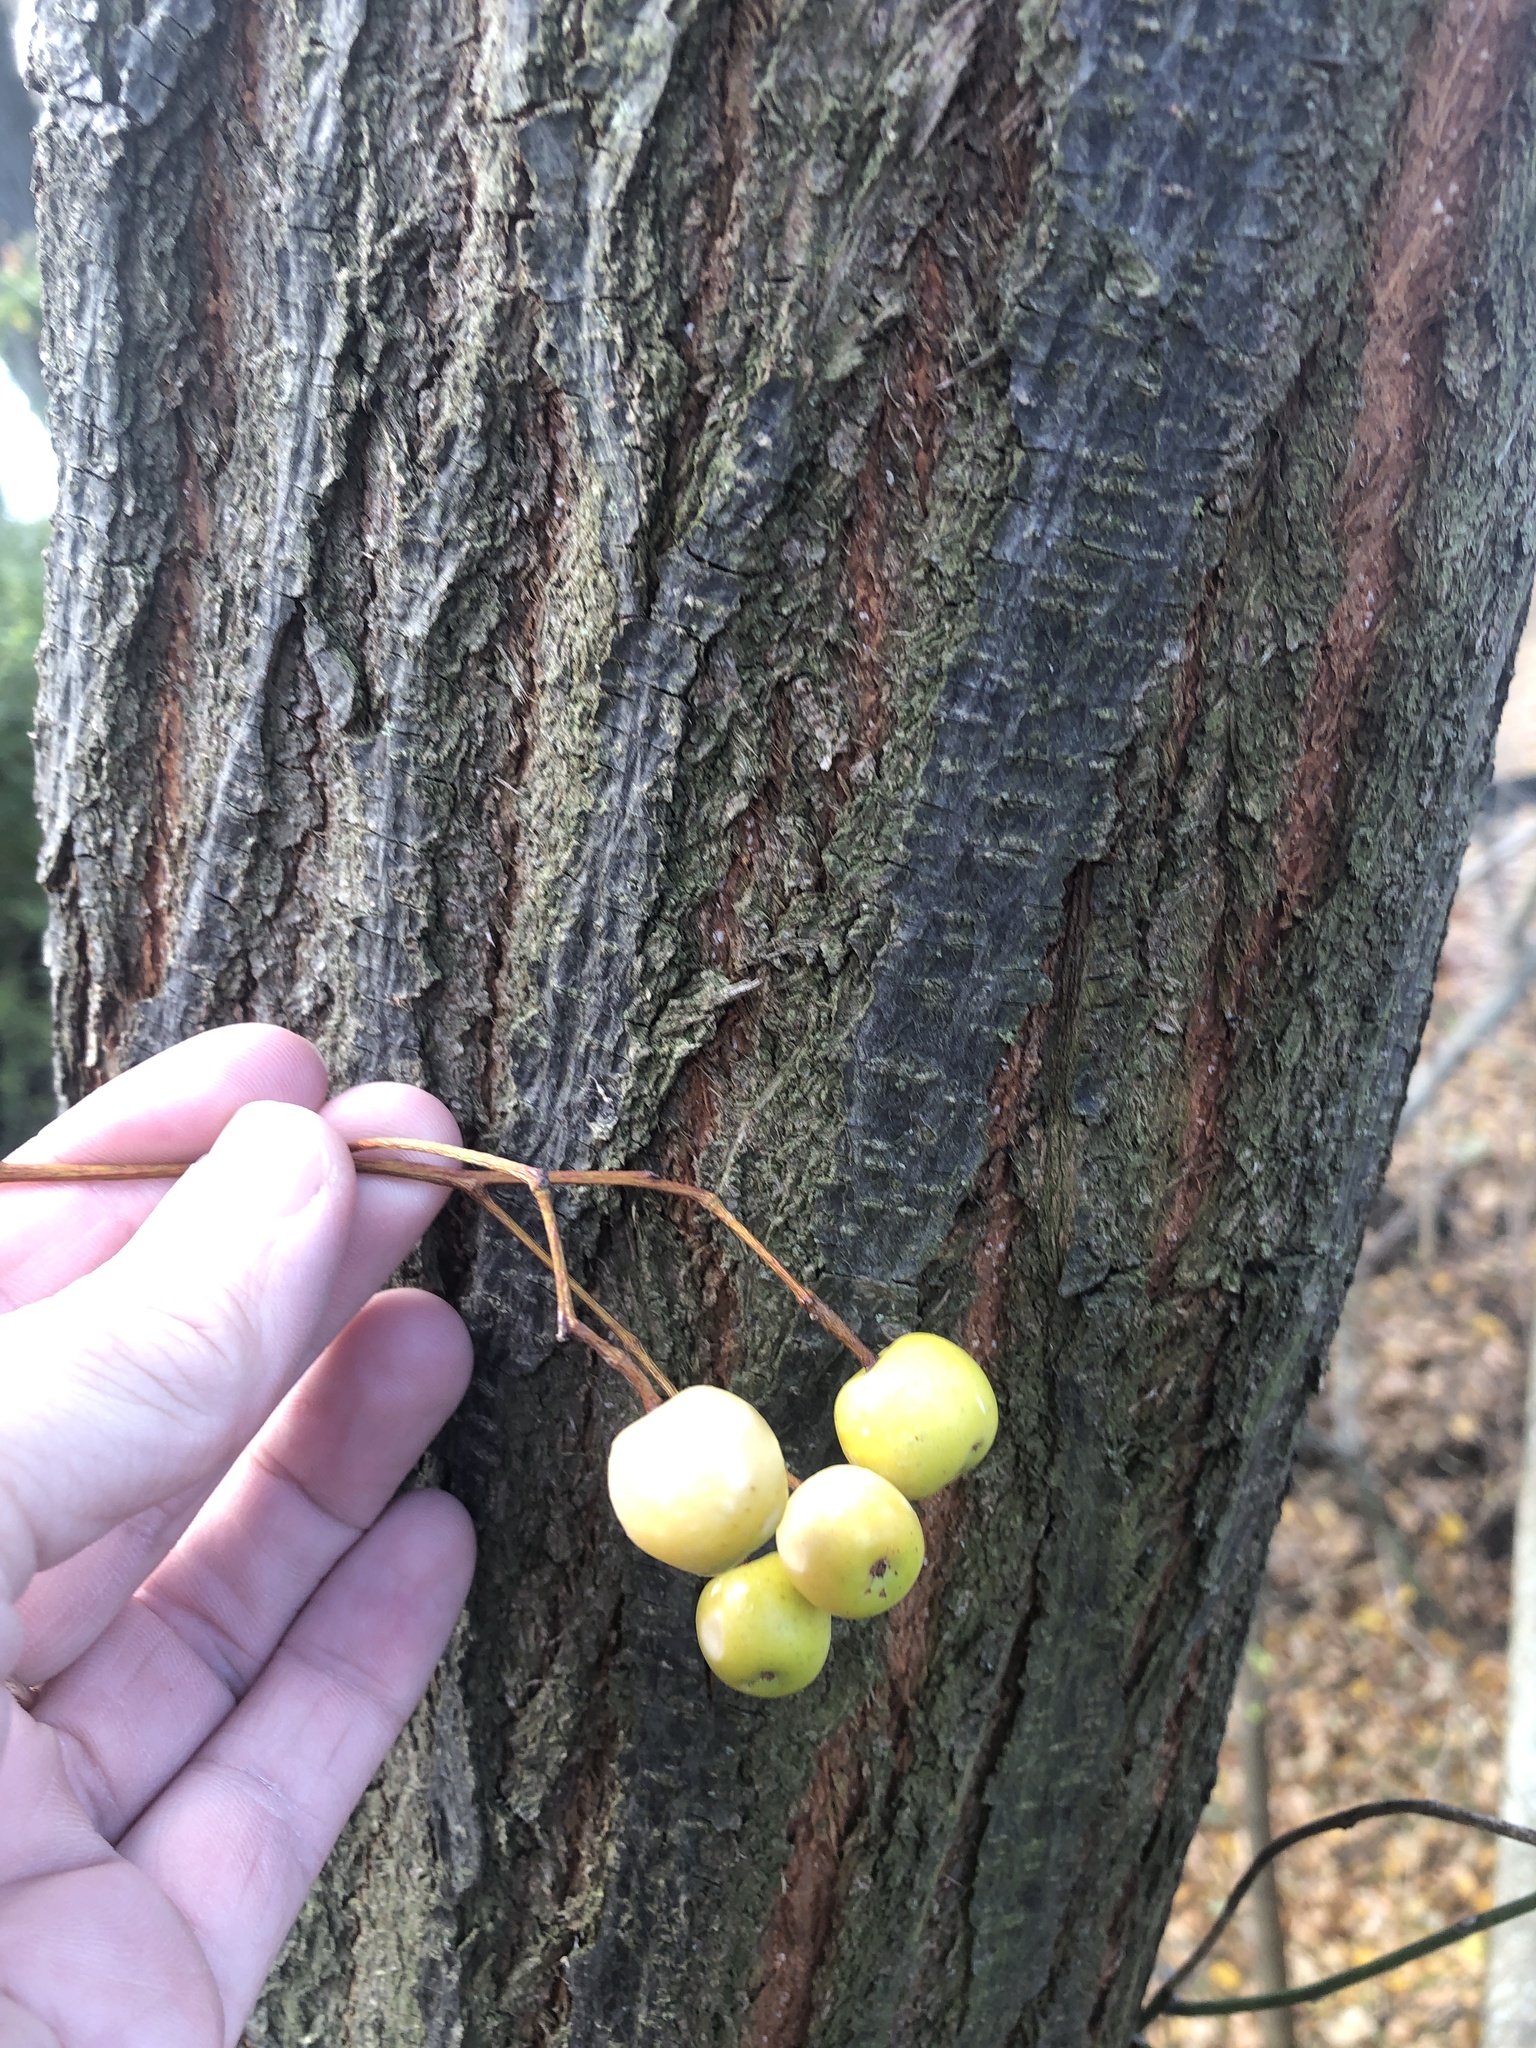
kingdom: Plantae
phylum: Tracheophyta
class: Magnoliopsida
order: Sapindales
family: Meliaceae
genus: Melia
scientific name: Melia azedarach
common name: Chinaberrytree
